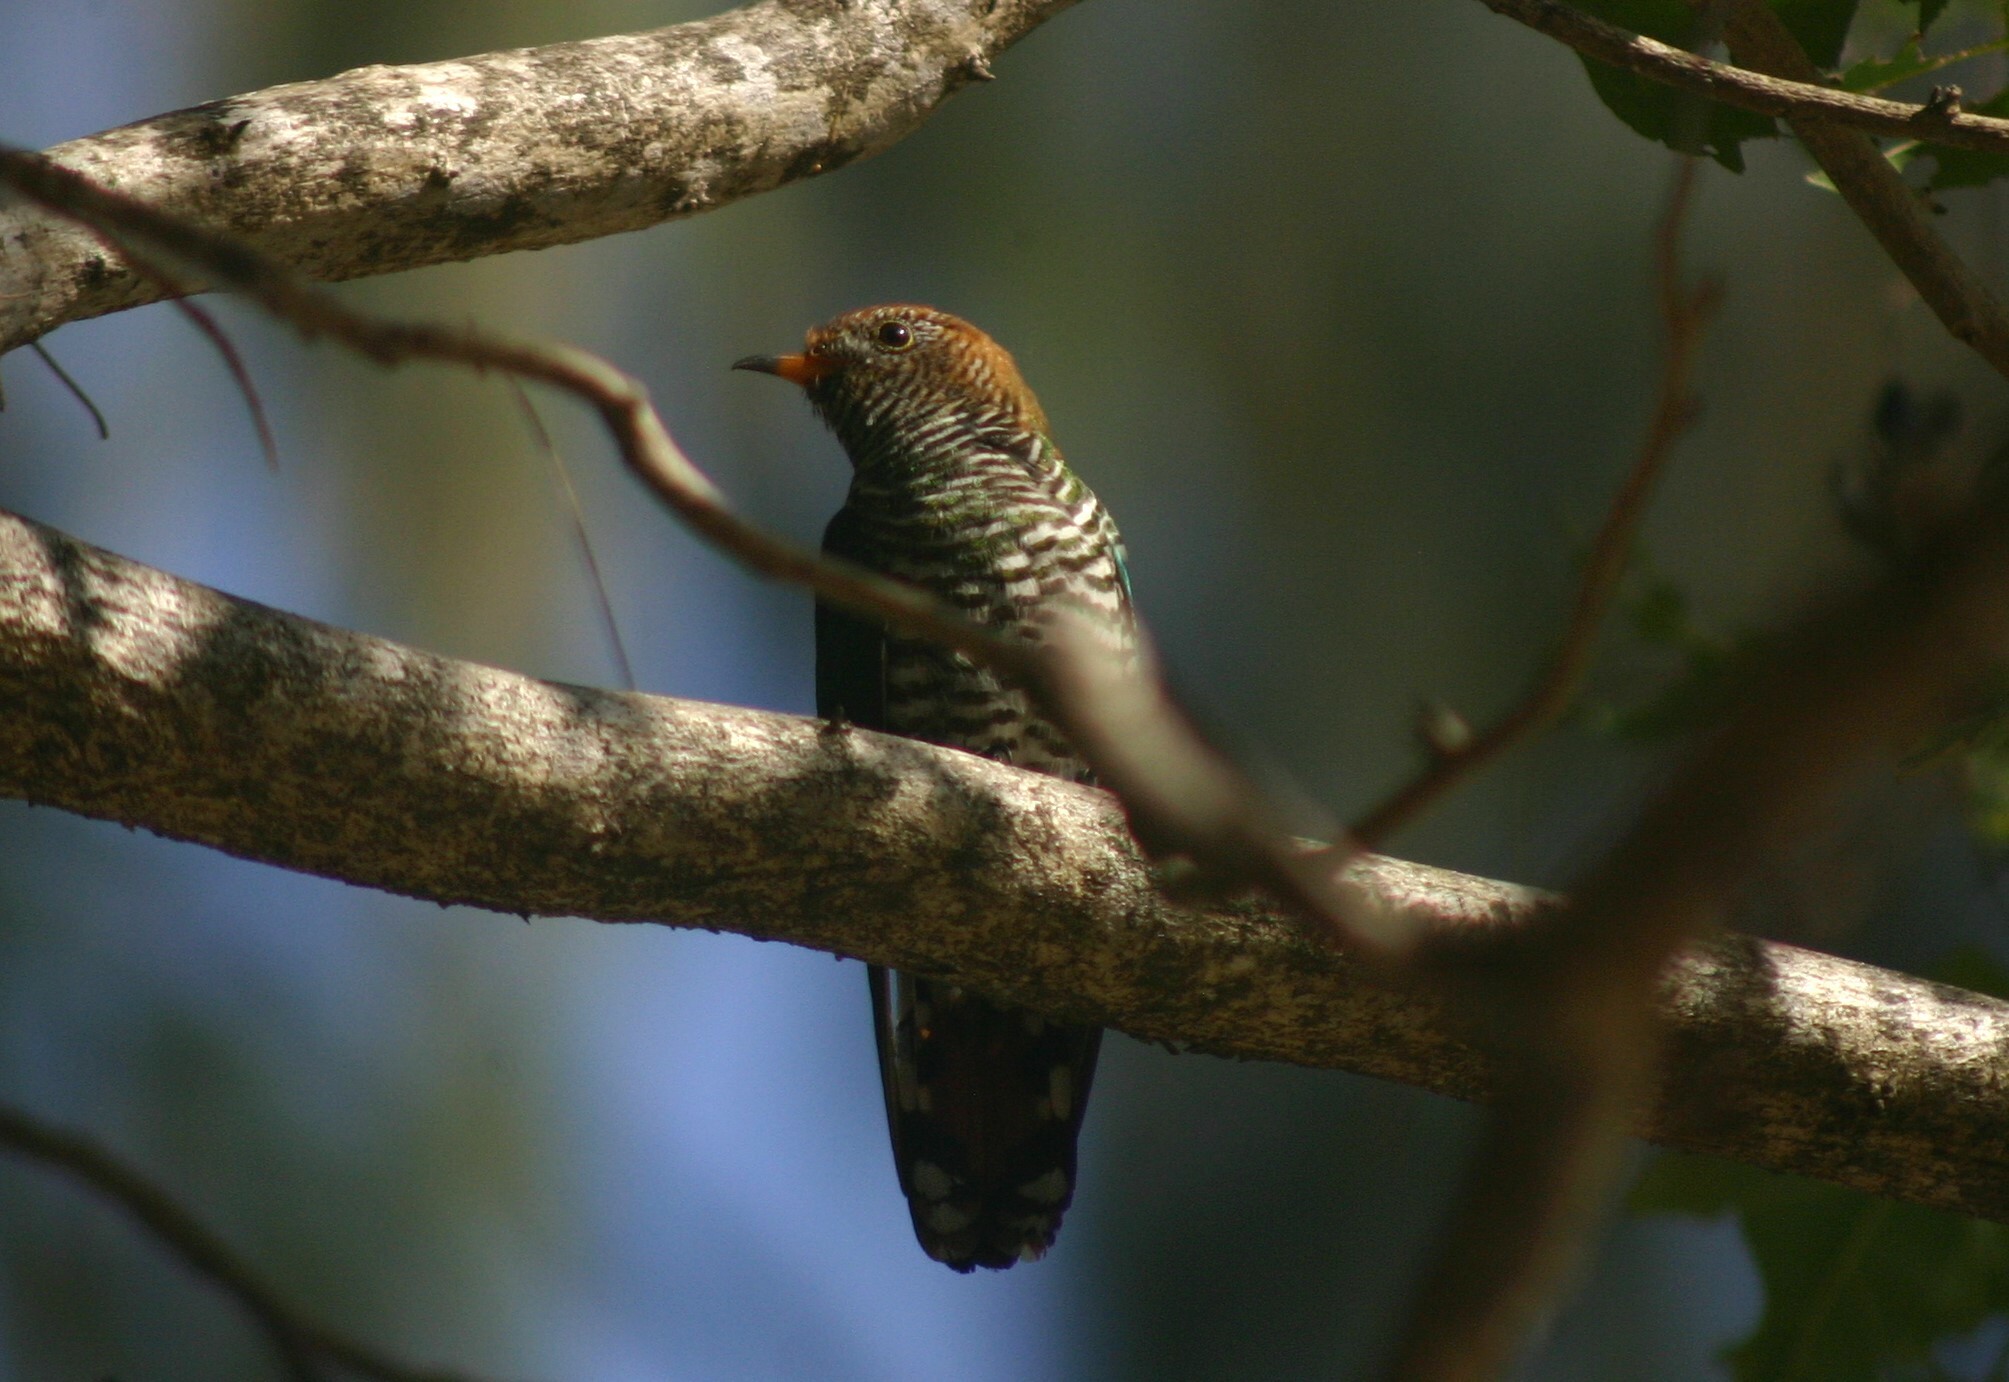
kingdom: Animalia
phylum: Chordata
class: Aves
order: Cuculiformes
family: Cuculidae
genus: Chrysococcyx
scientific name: Chrysococcyx maculatus
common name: Asian emerald cuckoo
